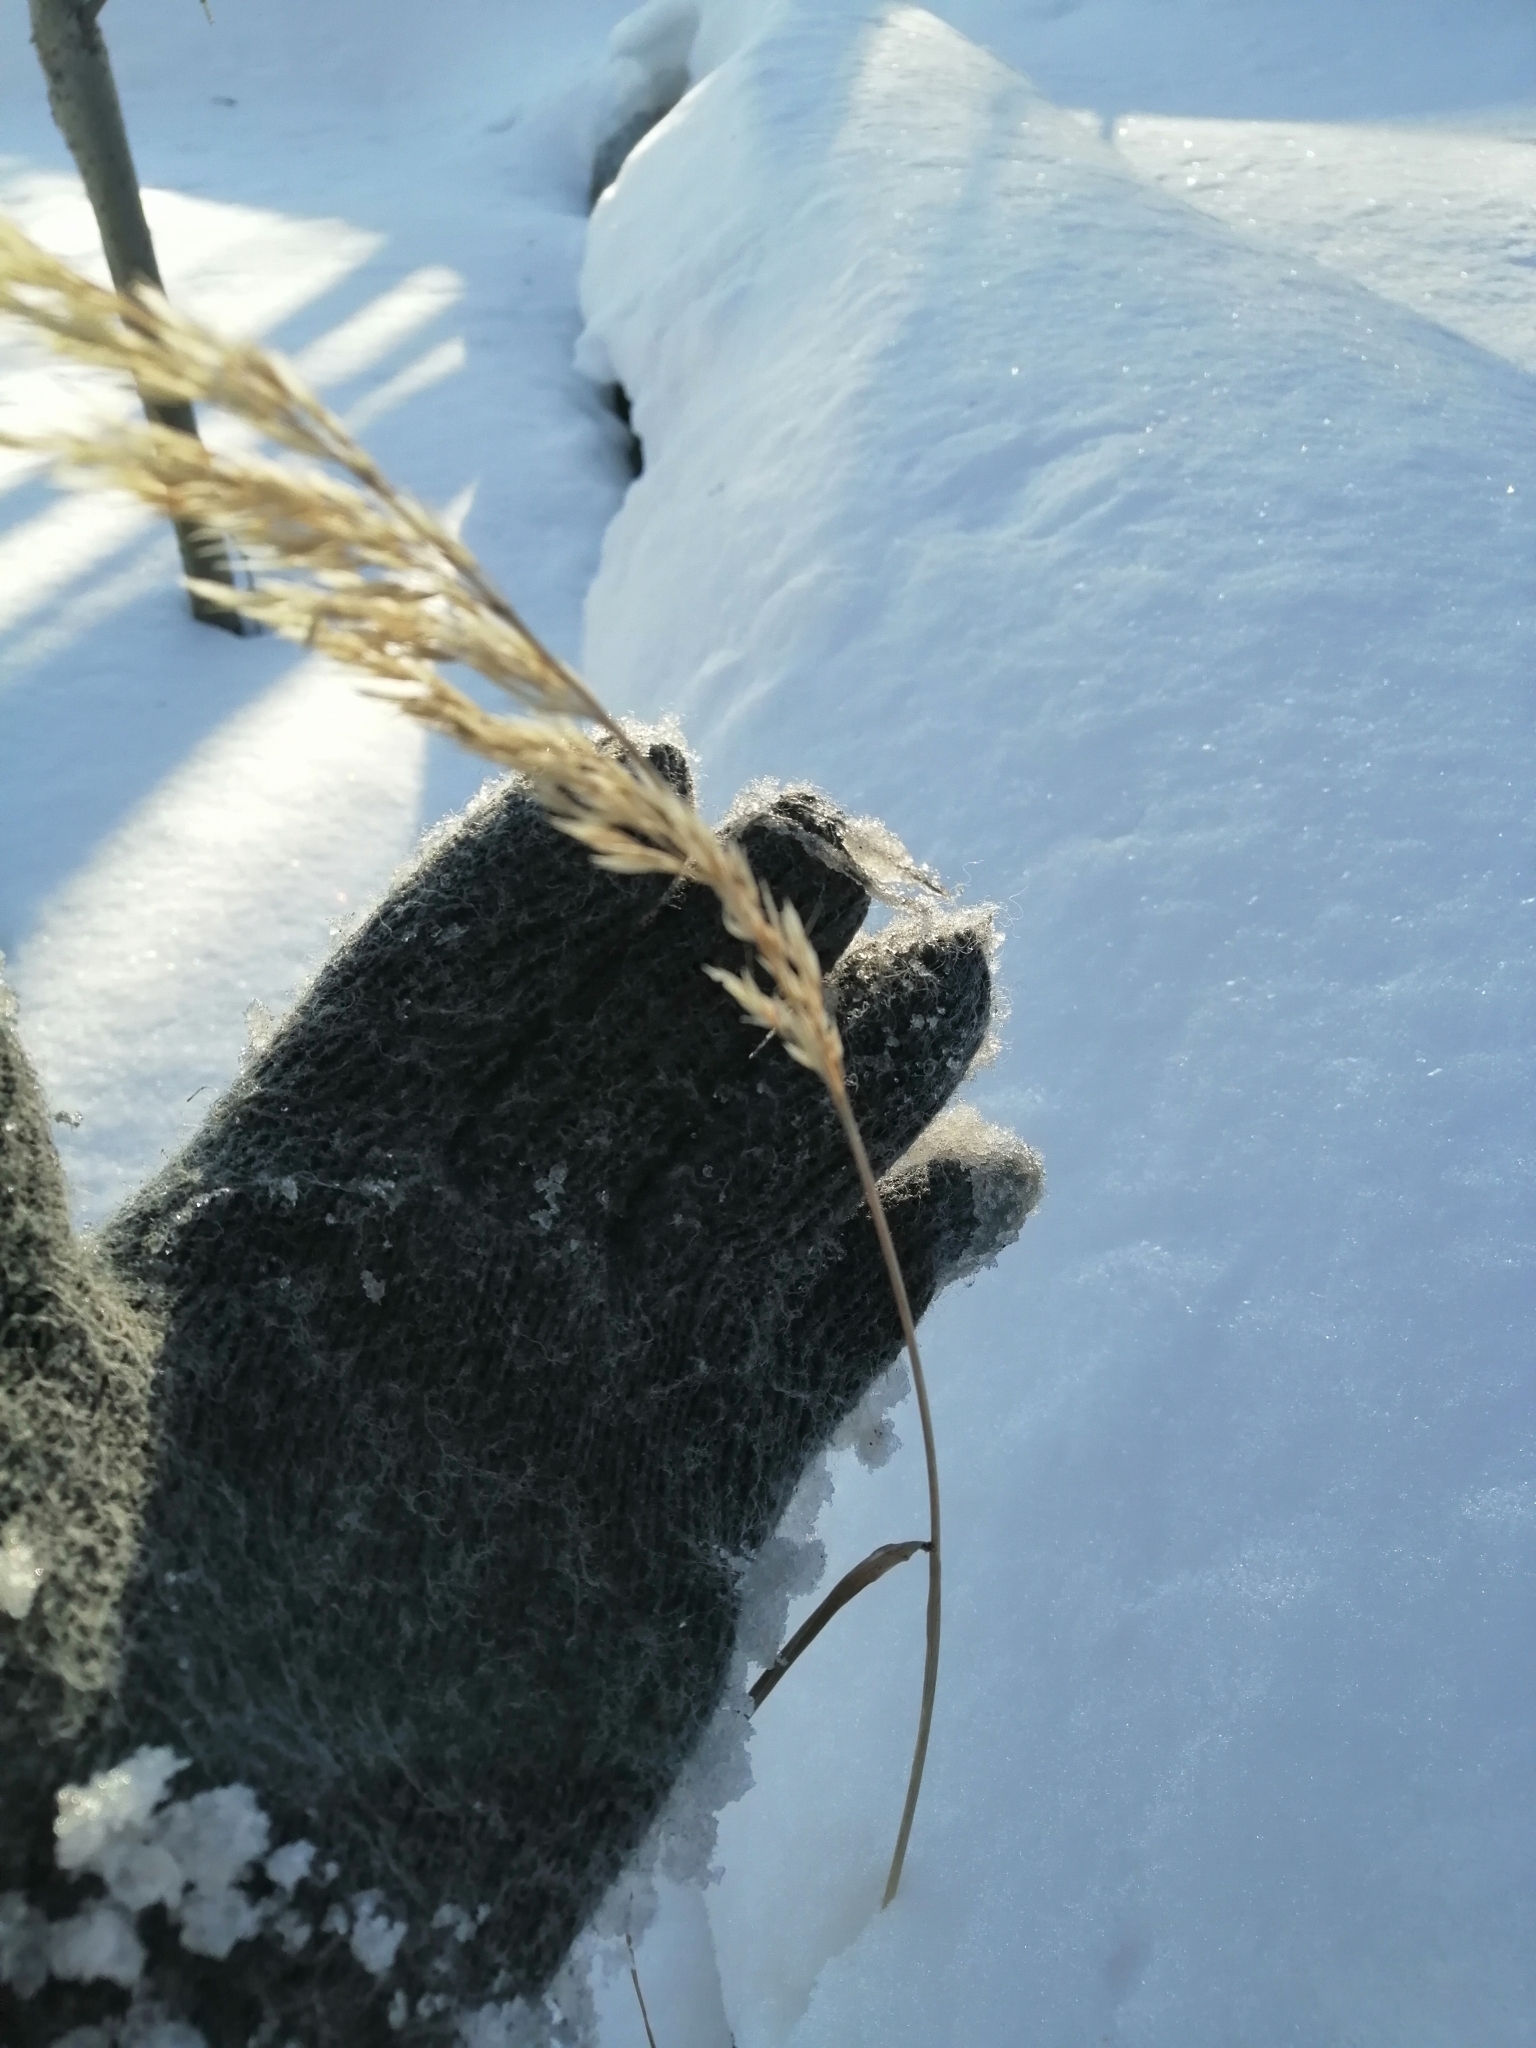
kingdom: Plantae
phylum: Tracheophyta
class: Liliopsida
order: Poales
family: Poaceae
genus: Calamagrostis
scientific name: Calamagrostis arundinacea
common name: Metskastik
